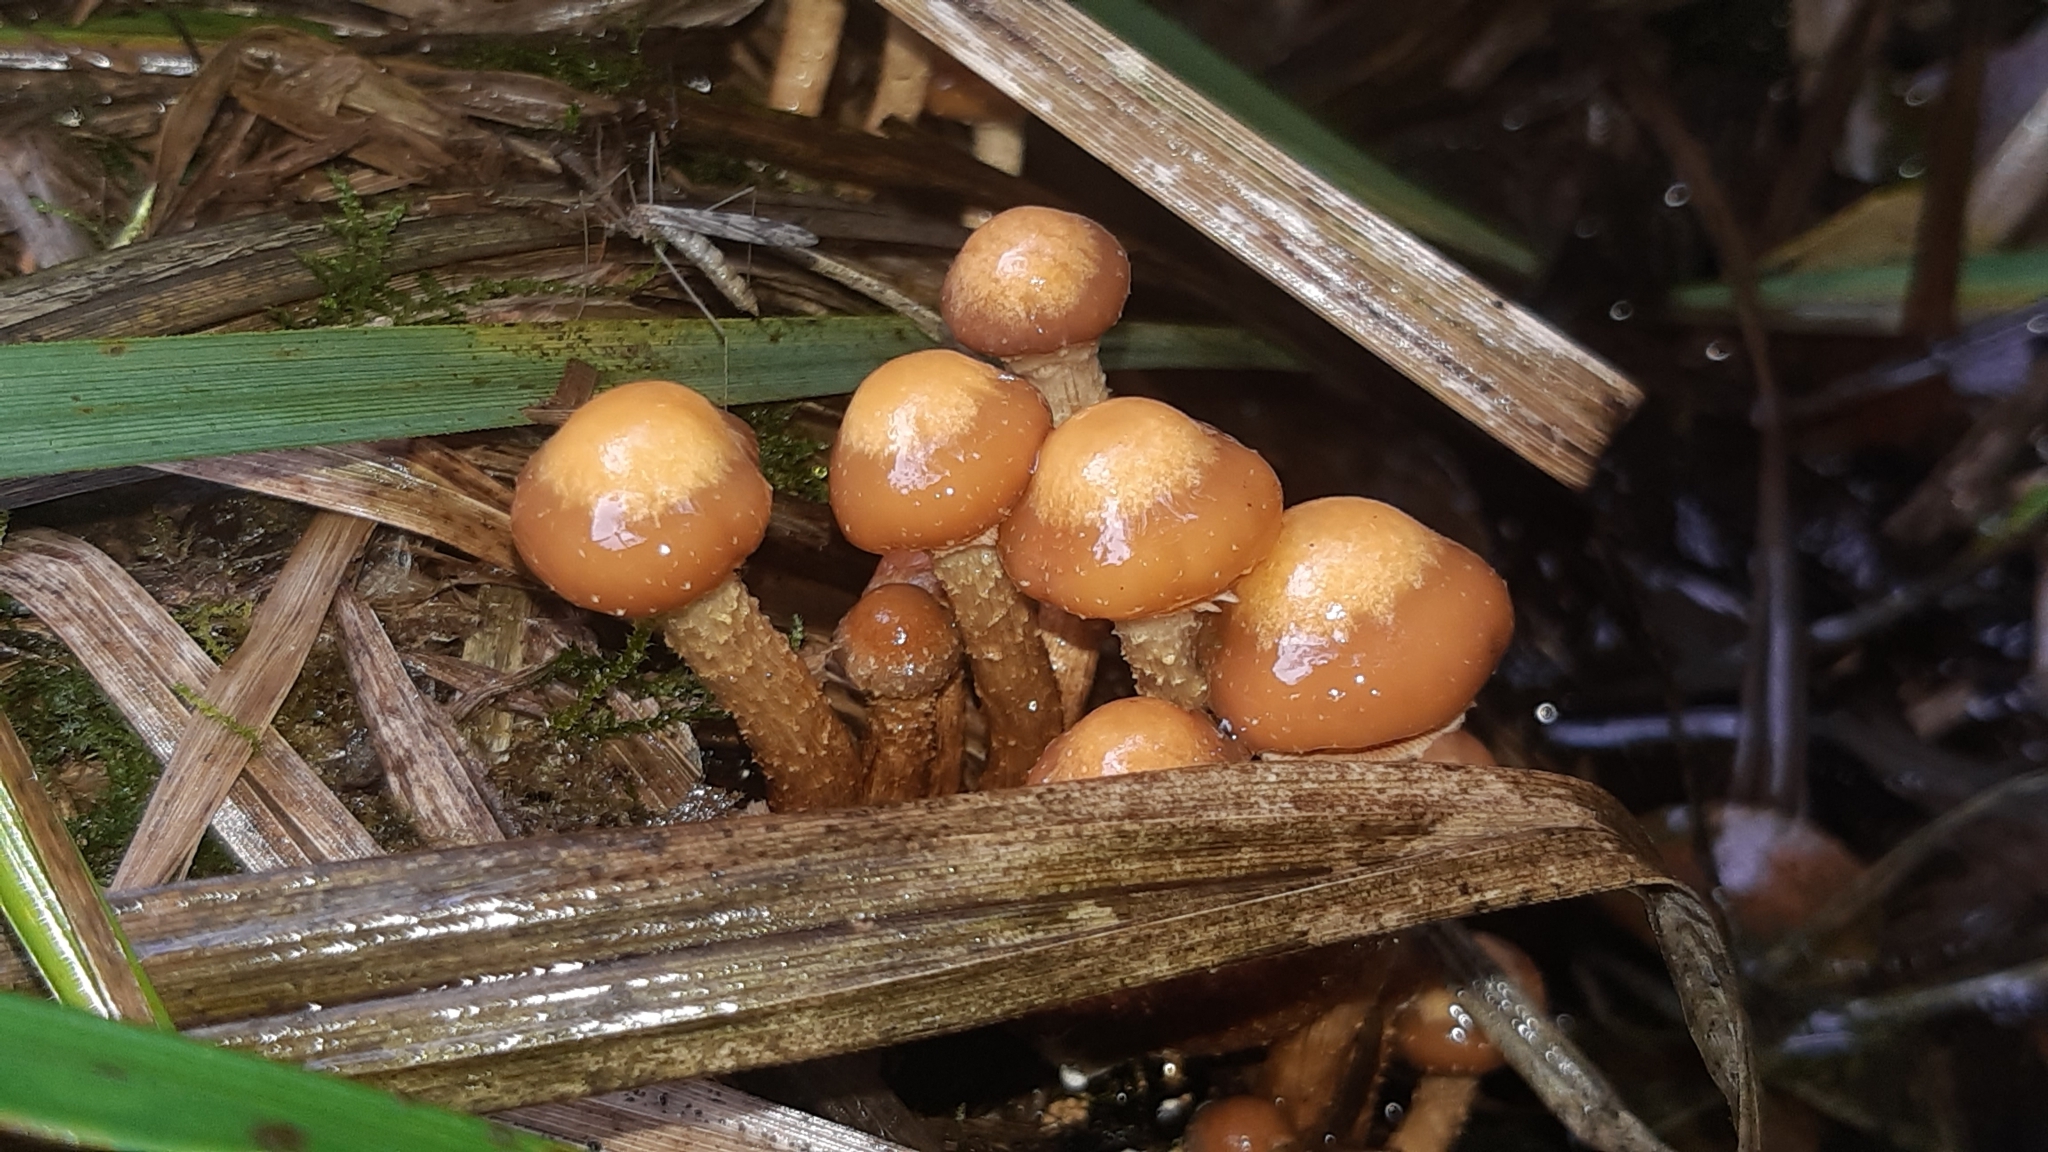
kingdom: Fungi
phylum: Basidiomycota
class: Agaricomycetes
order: Agaricales
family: Strophariaceae
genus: Kuehneromyces
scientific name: Kuehneromyces mutabilis
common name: Sheathed woodtuft
